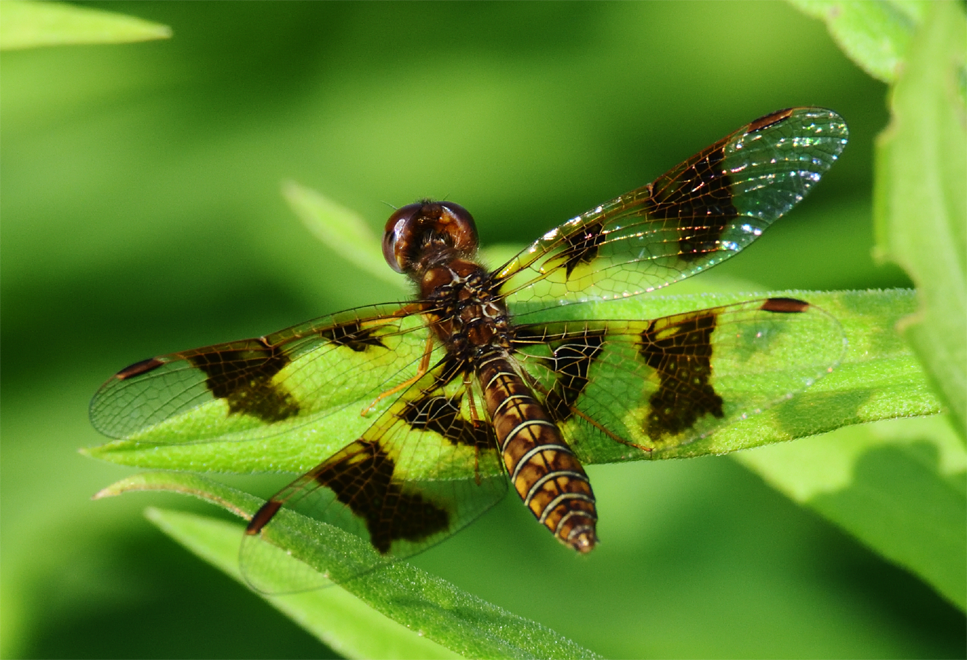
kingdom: Animalia
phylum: Arthropoda
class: Insecta
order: Odonata
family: Libellulidae
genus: Perithemis
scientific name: Perithemis tenera
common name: Eastern amberwing
